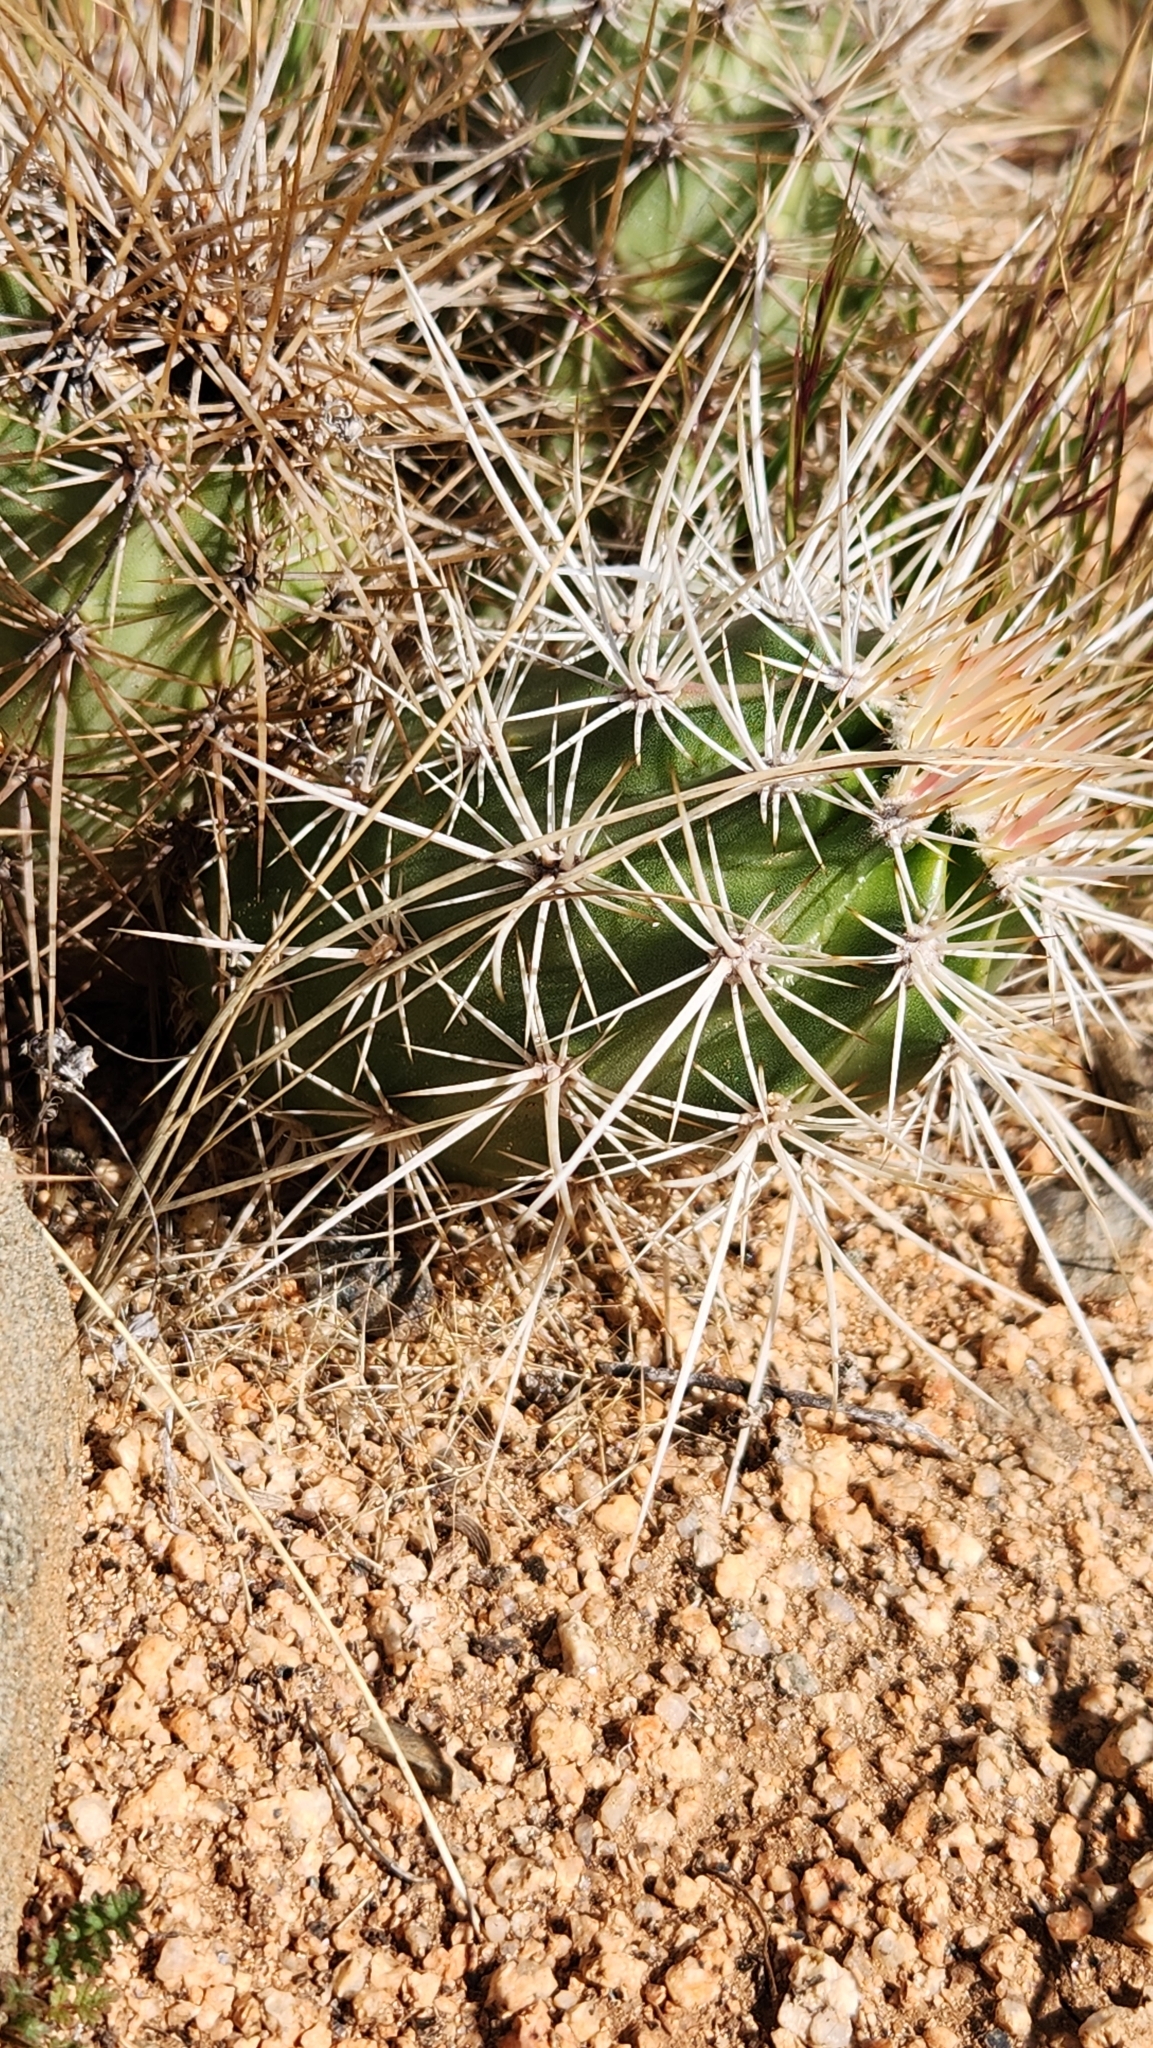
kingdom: Plantae
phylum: Tracheophyta
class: Magnoliopsida
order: Caryophyllales
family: Cactaceae
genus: Echinocereus
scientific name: Echinocereus engelmannii
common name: Engelmann's hedgehog cactus
